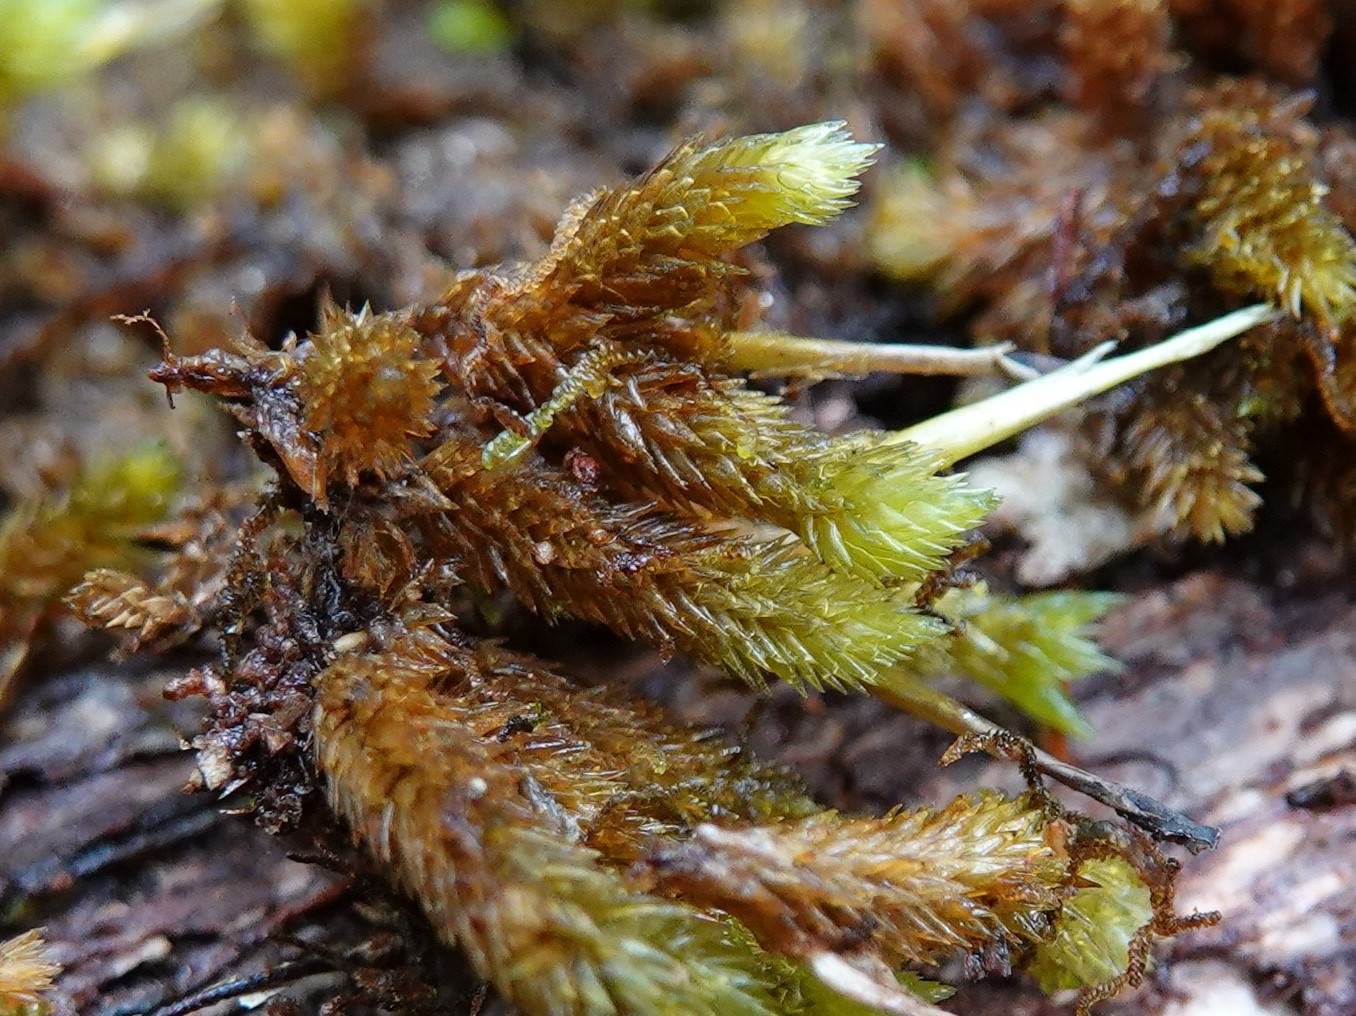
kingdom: Plantae
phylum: Bryophyta
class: Bryopsida
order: Dicranales
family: Dicranaceae
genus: Dicnemon
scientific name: Dicnemon calycinum
